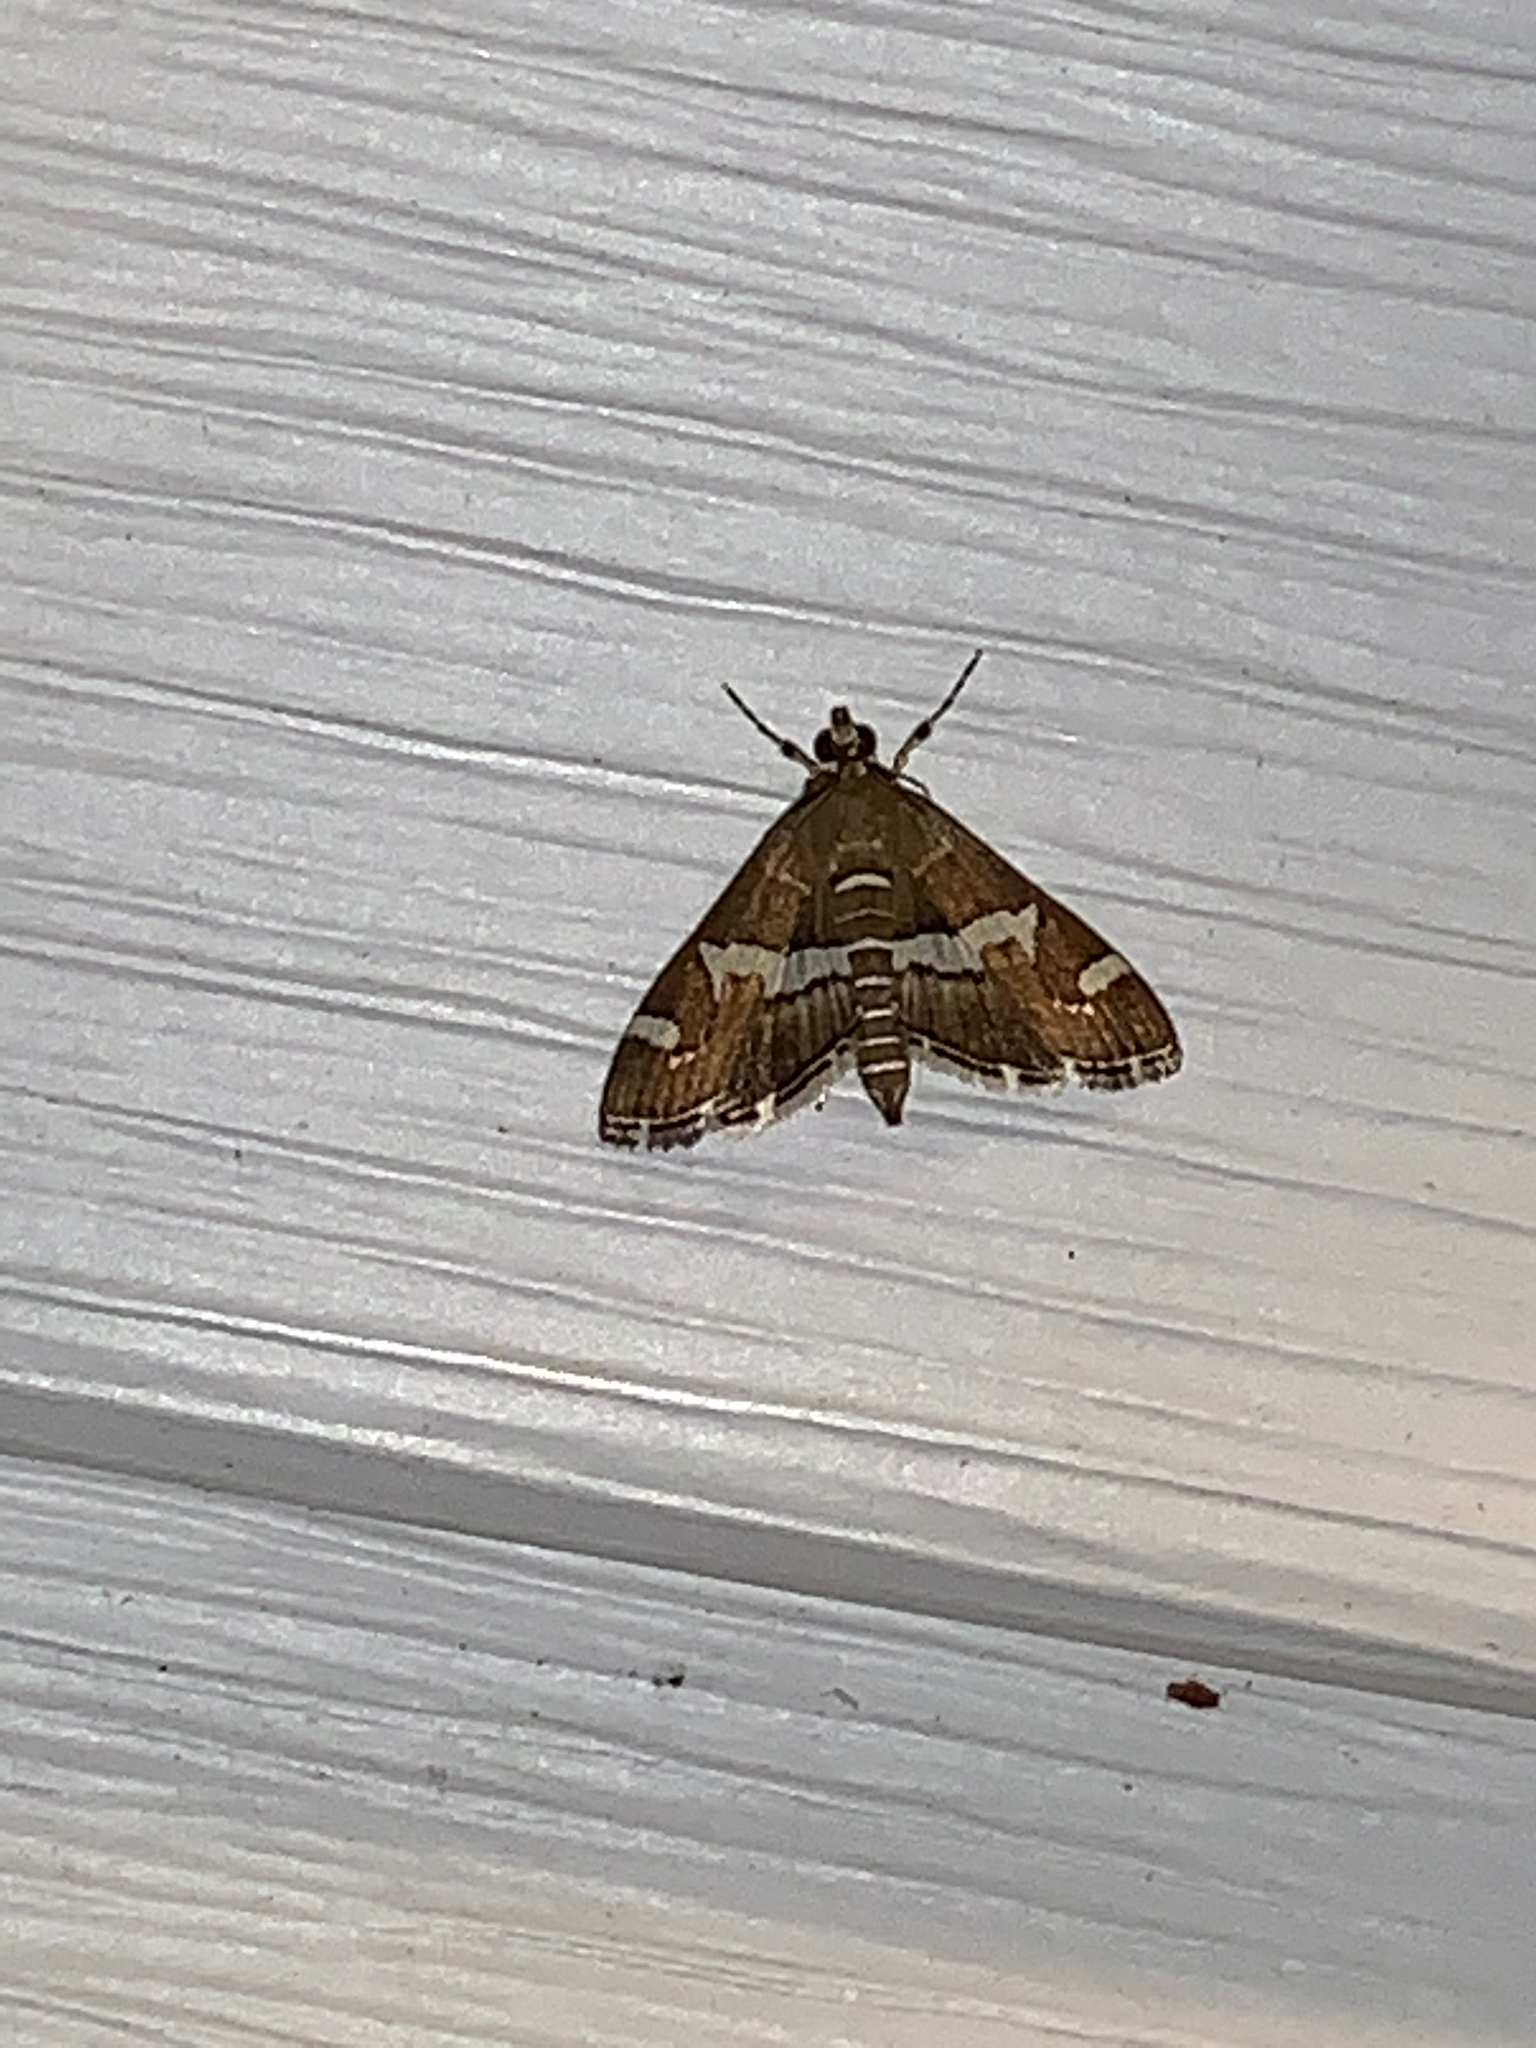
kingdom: Animalia
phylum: Arthropoda
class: Insecta
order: Lepidoptera
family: Crambidae
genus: Spoladea
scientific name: Spoladea recurvalis
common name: Beet webworm moth
